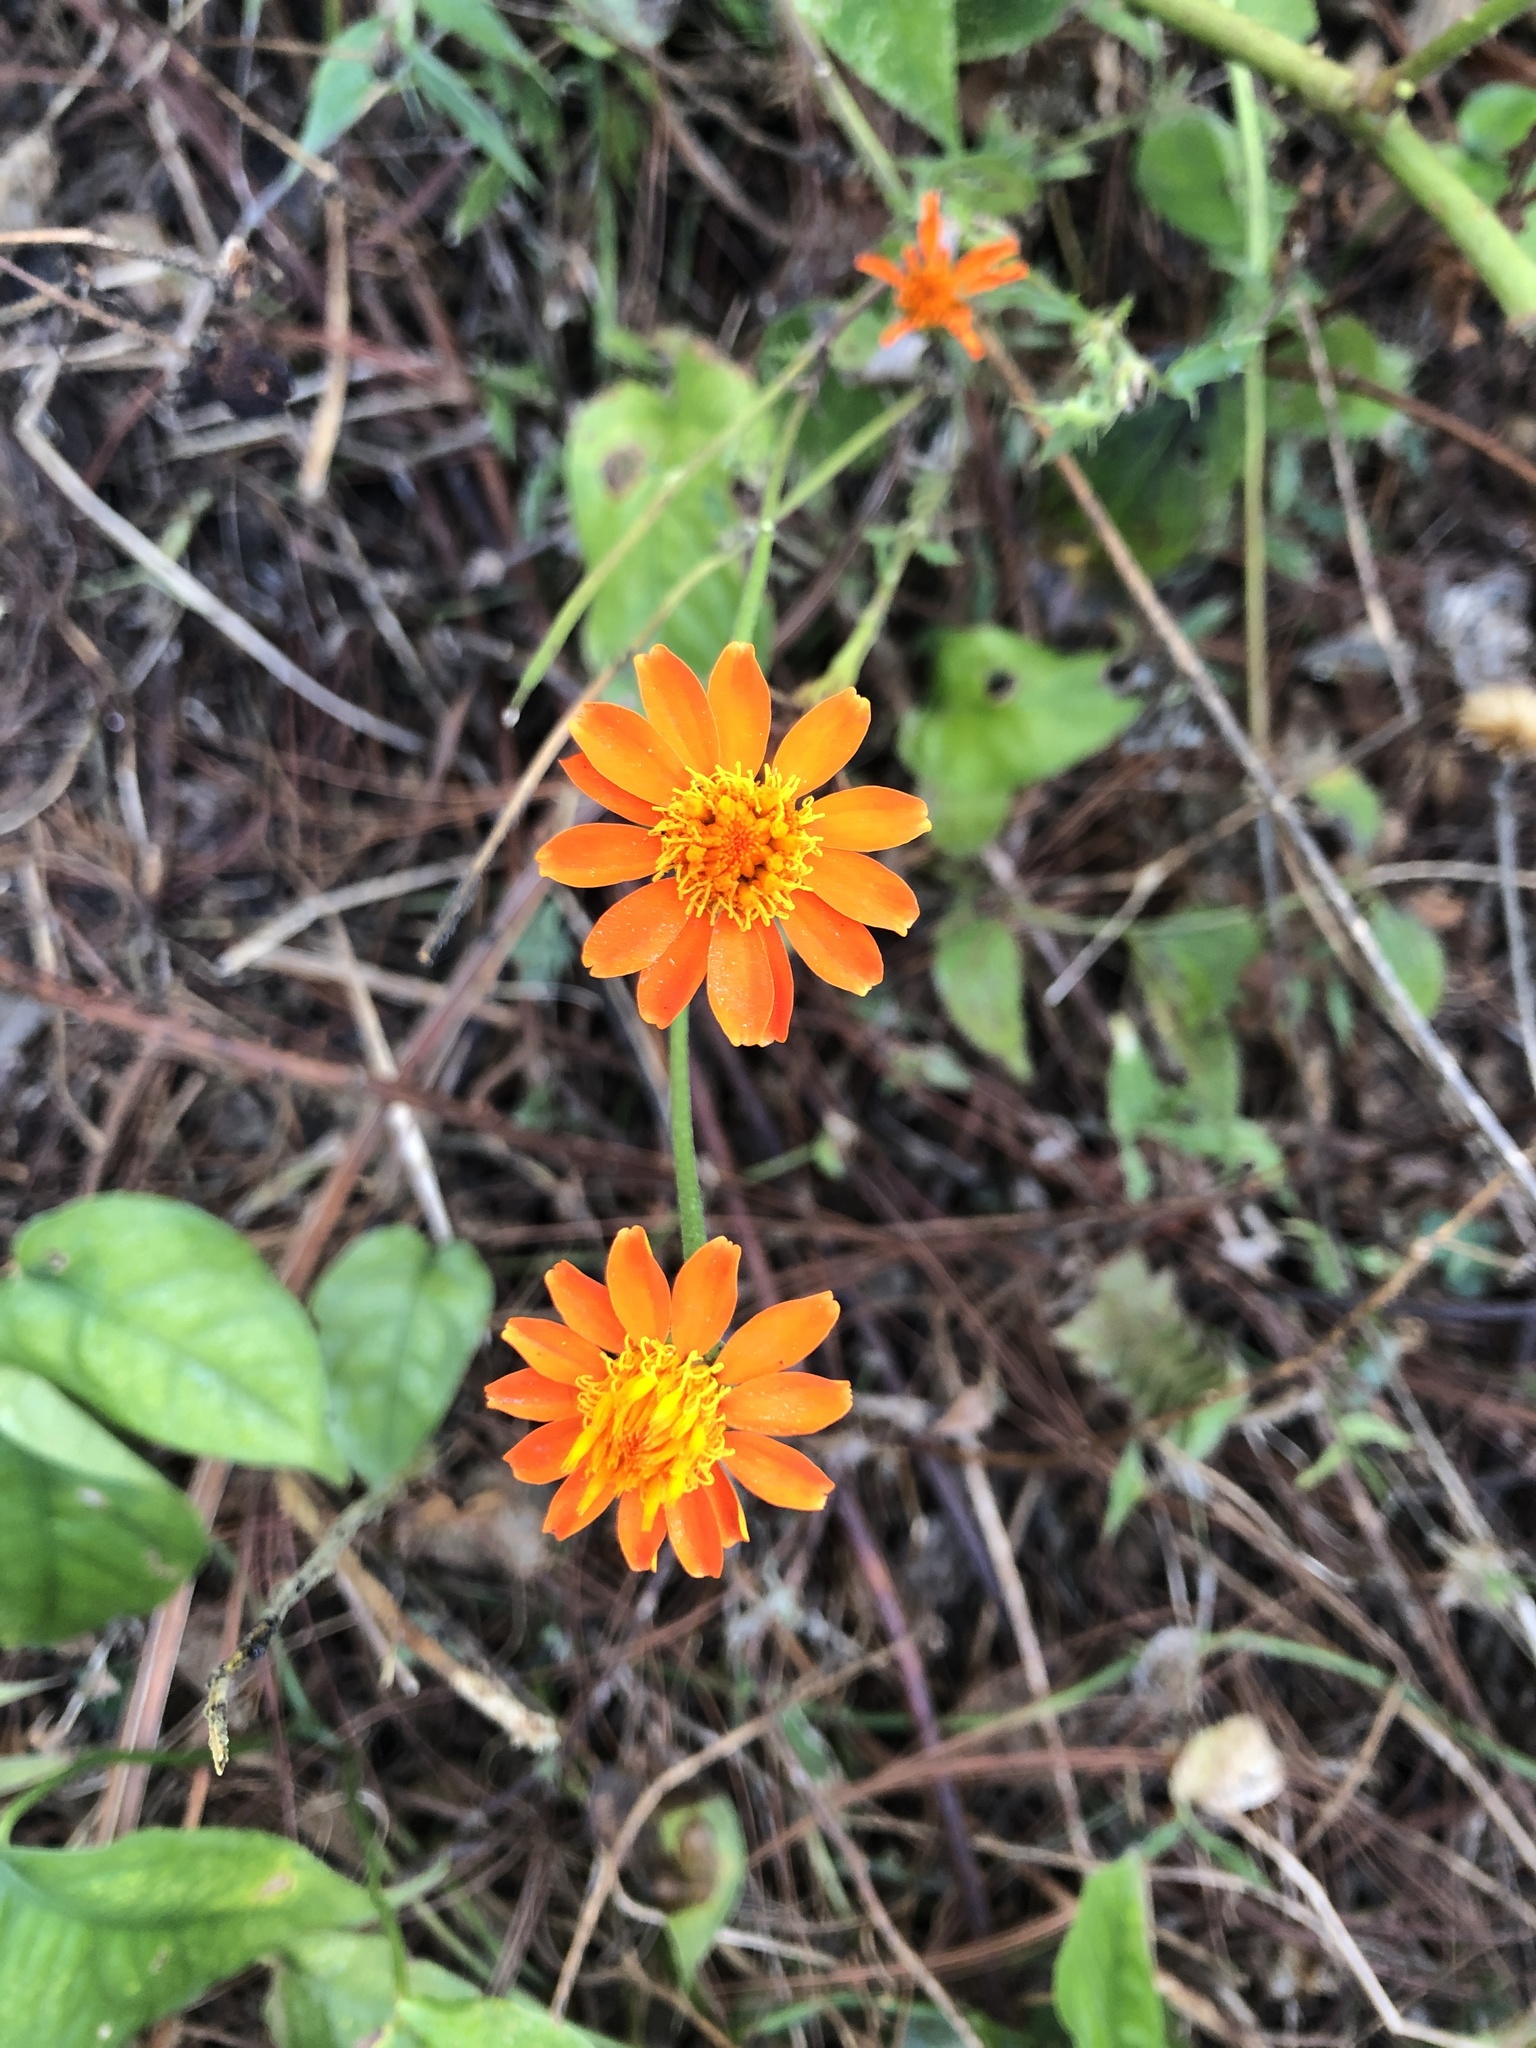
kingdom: Plantae
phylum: Tracheophyta
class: Magnoliopsida
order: Asterales
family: Asteraceae
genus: Comaclinium
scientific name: Comaclinium montanum
